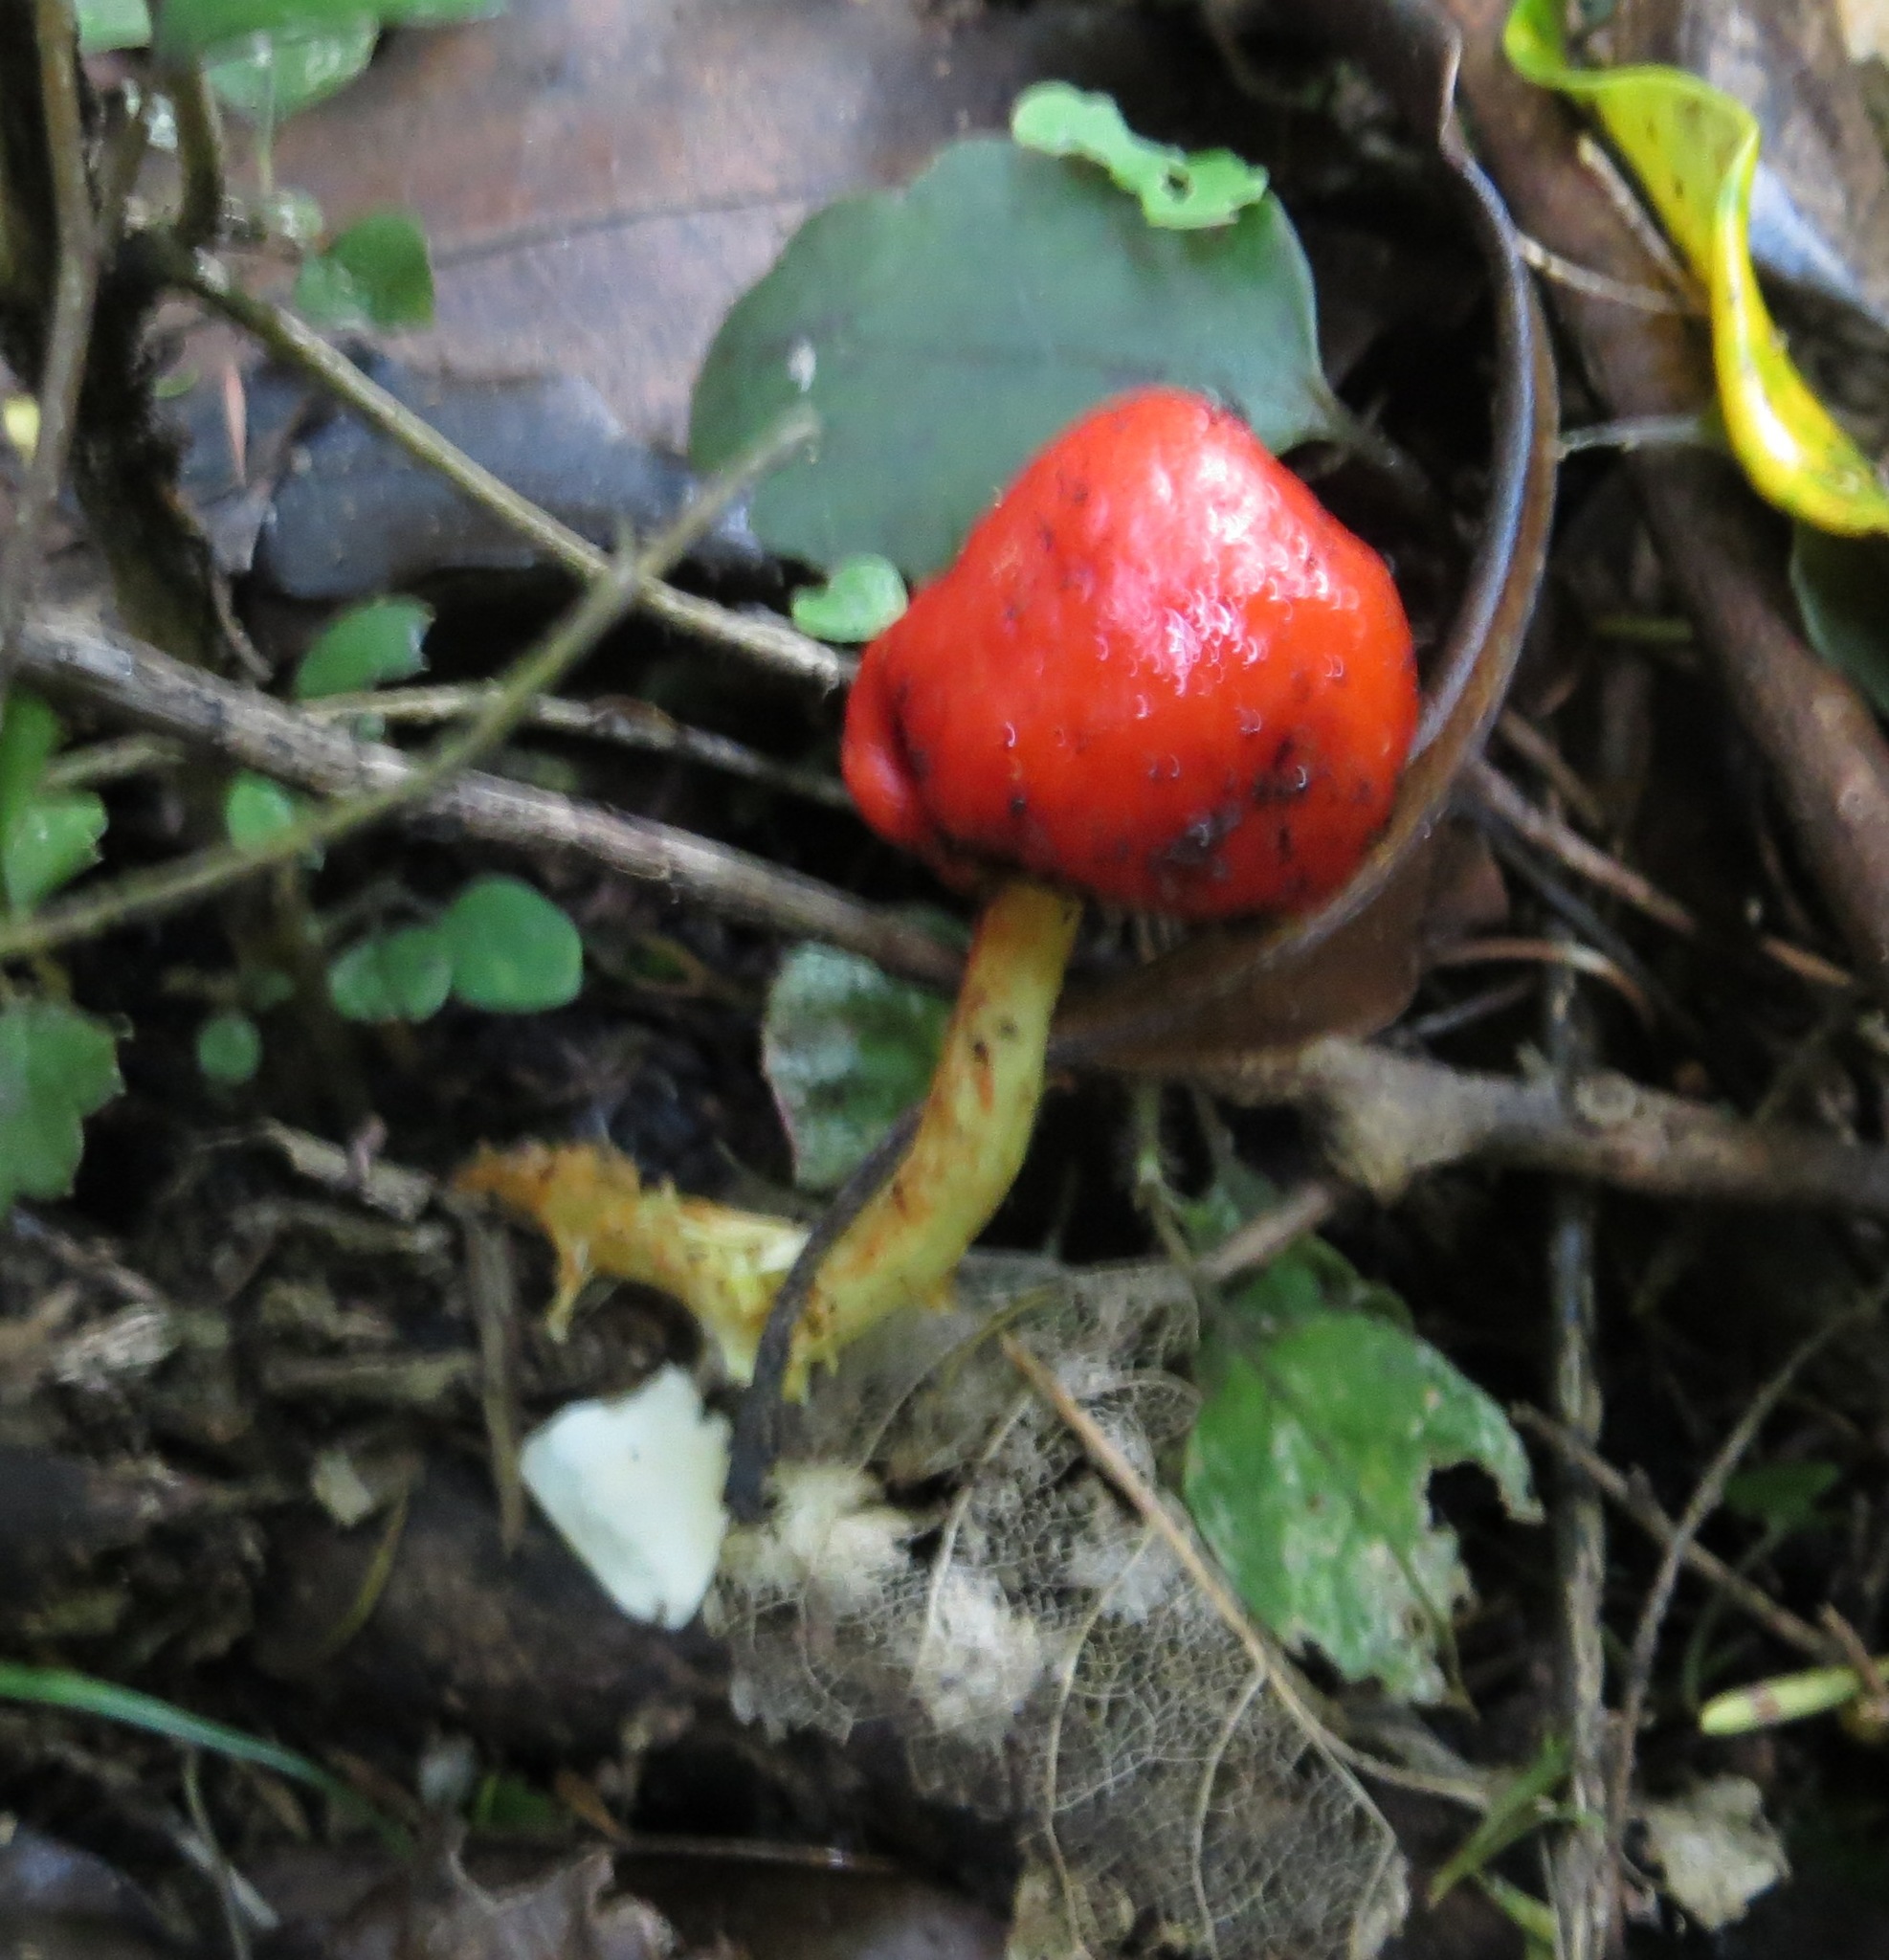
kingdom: Fungi
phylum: Basidiomycota
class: Agaricomycetes
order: Agaricales
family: Strophariaceae
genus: Leratiomyces
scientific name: Leratiomyces erythrocephalus
